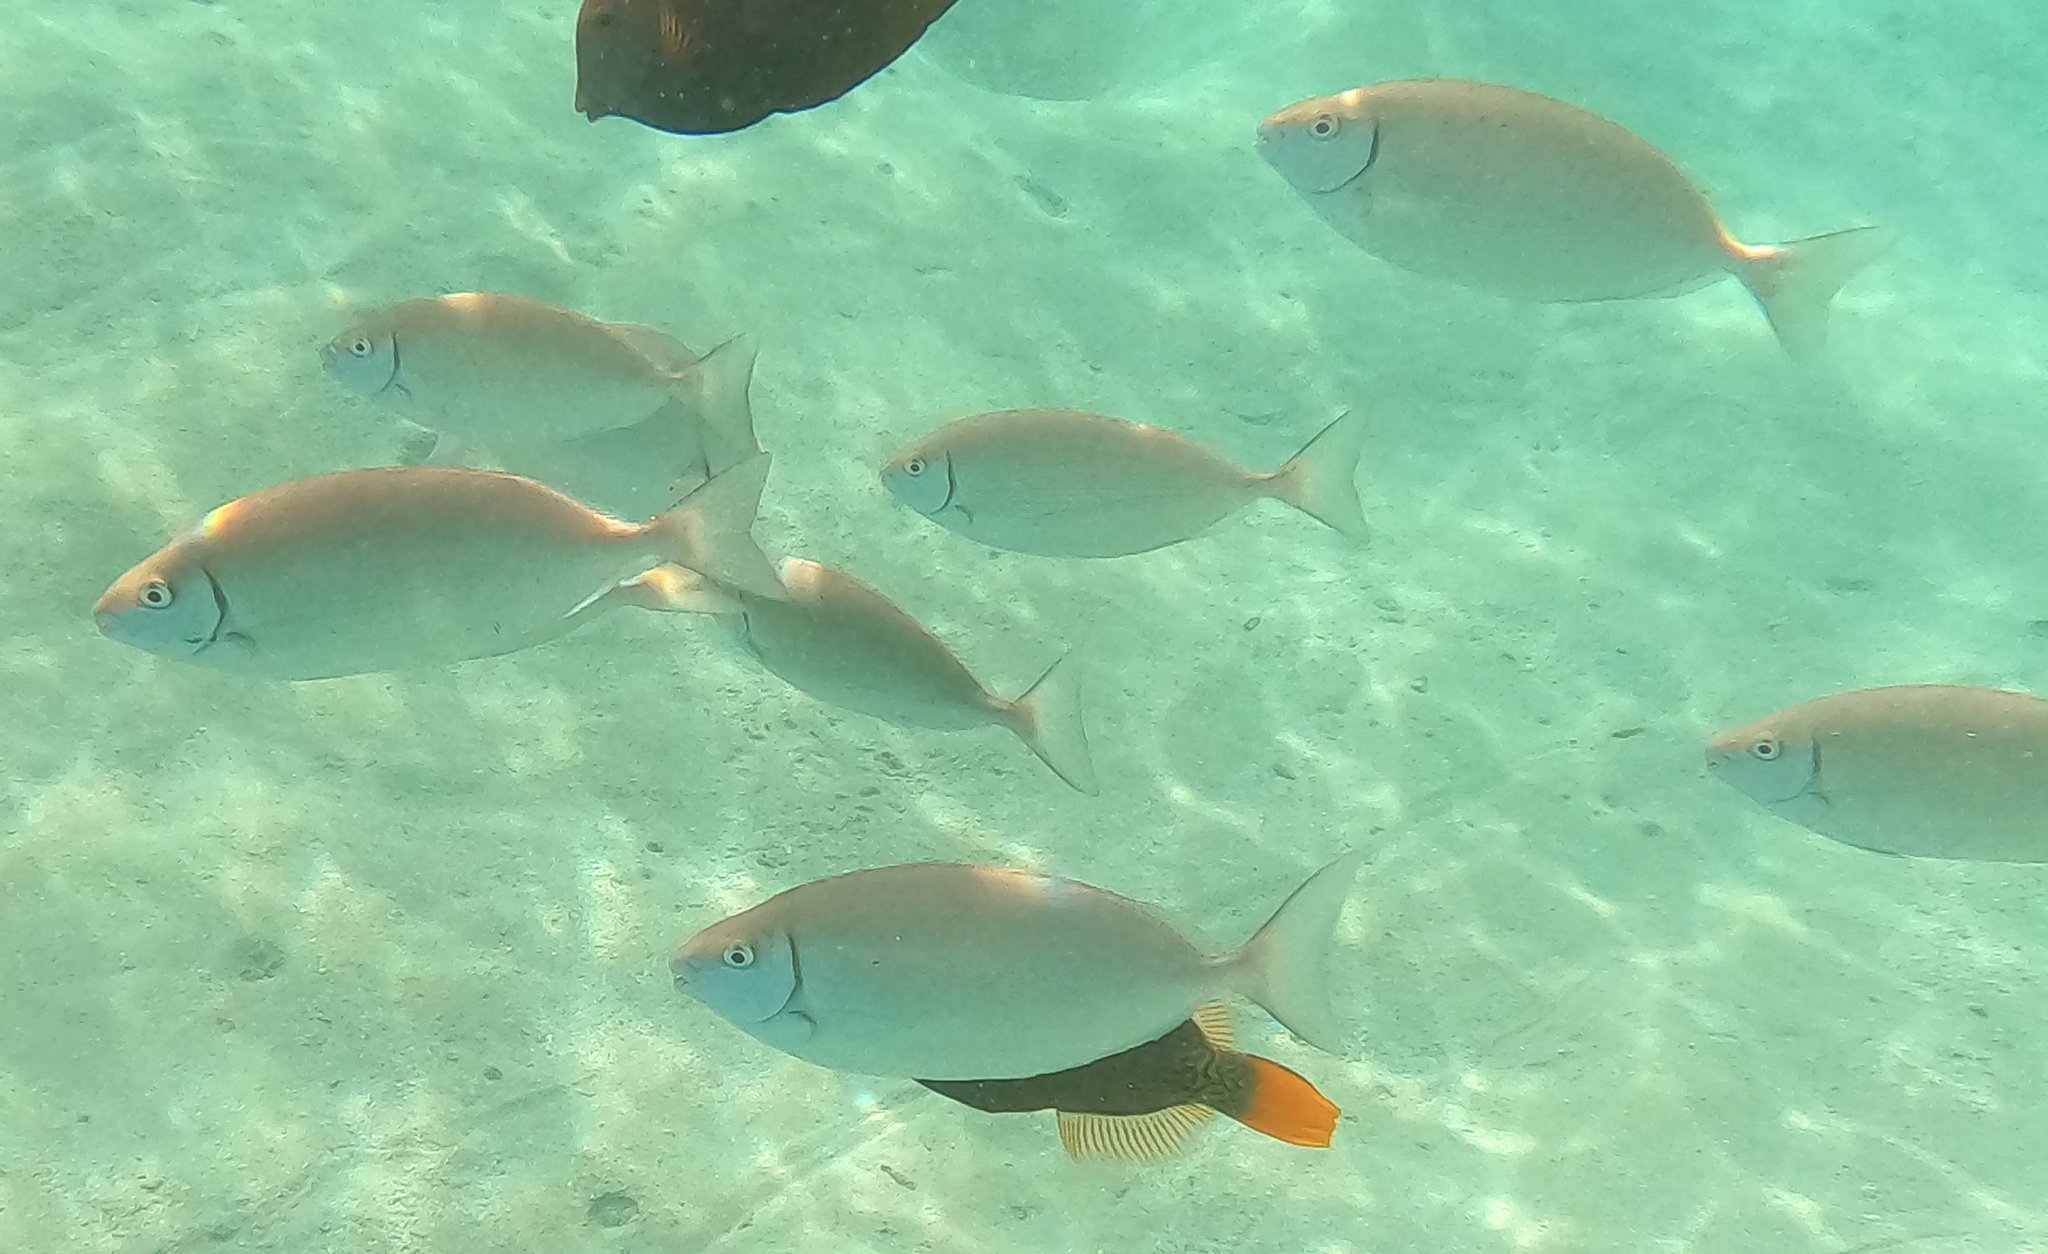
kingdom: Animalia
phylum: Chordata
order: Perciformes
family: Siganidae
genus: Siganus
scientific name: Siganus rivulatus
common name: Marbled spinefoot
